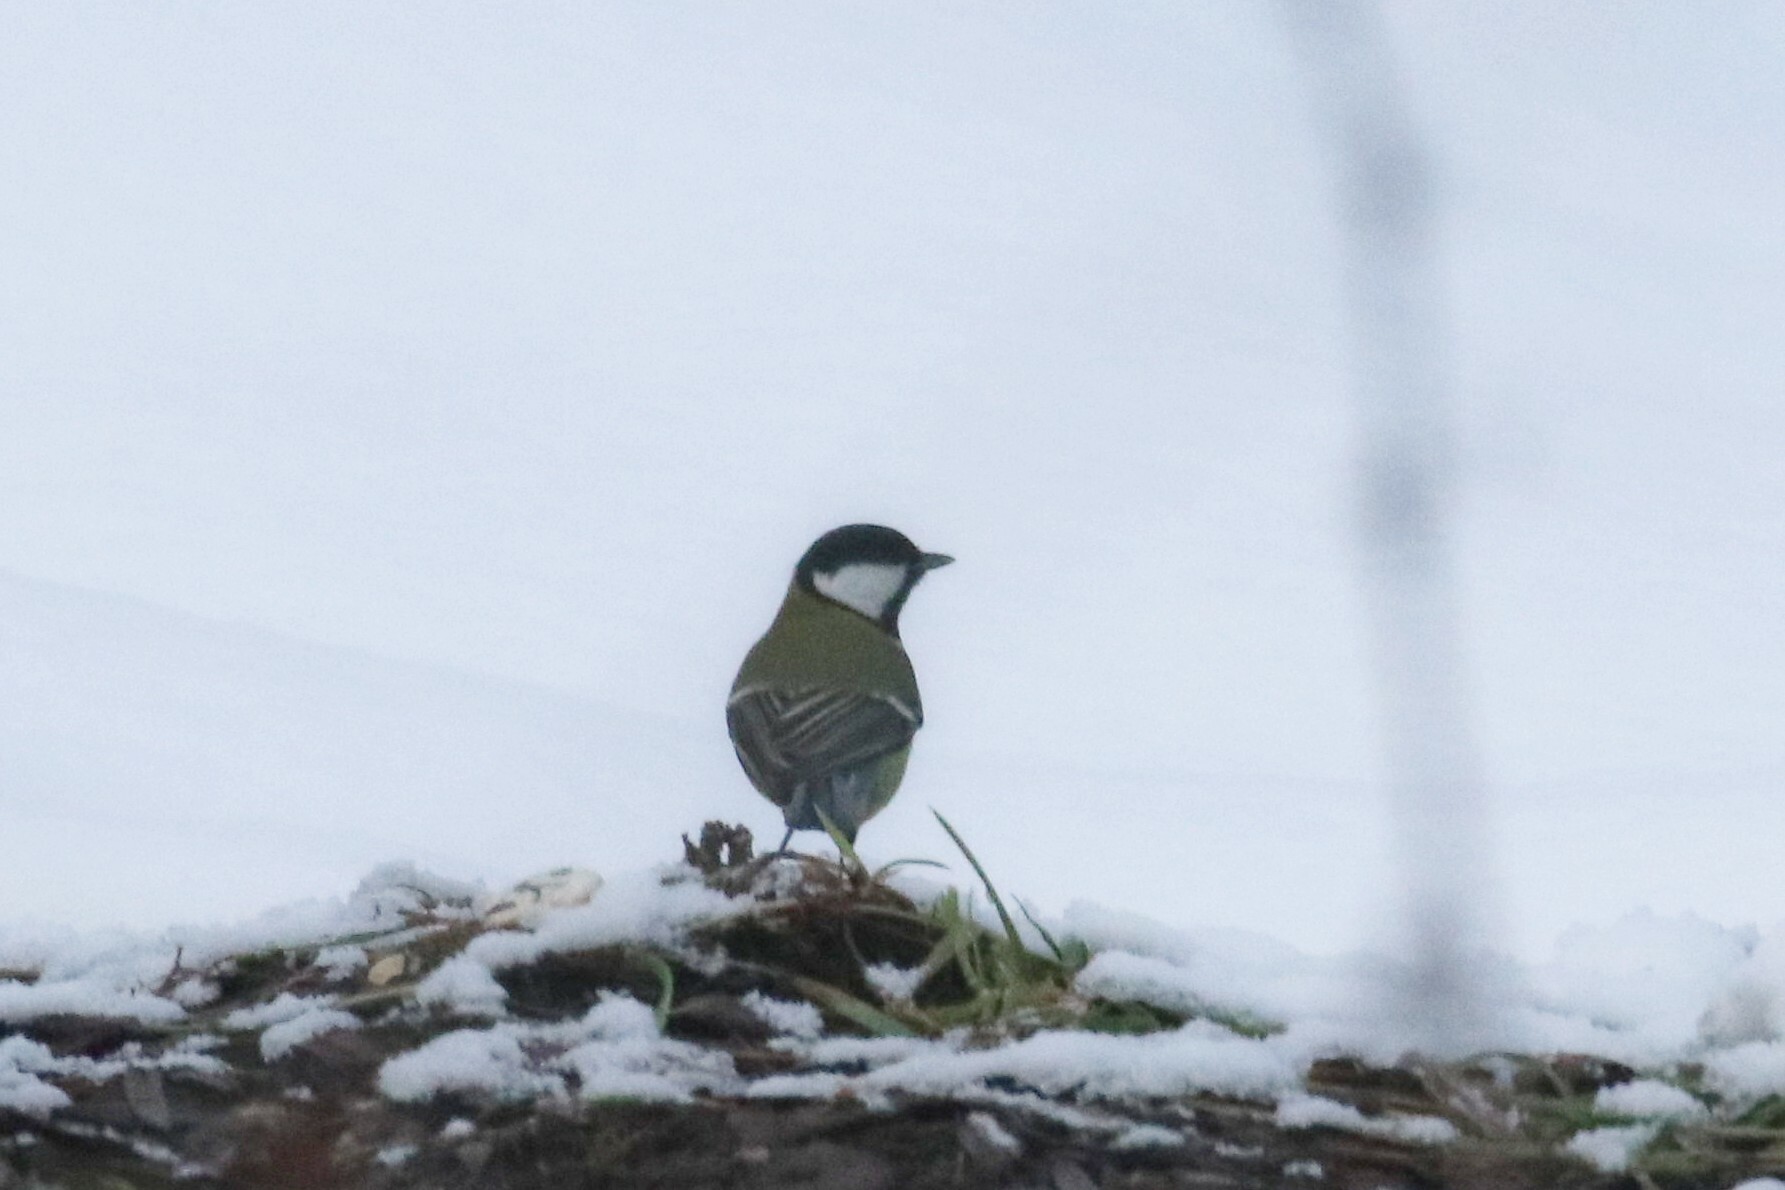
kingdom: Animalia
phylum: Chordata
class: Aves
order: Passeriformes
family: Paridae
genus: Parus
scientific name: Parus major
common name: Great tit
